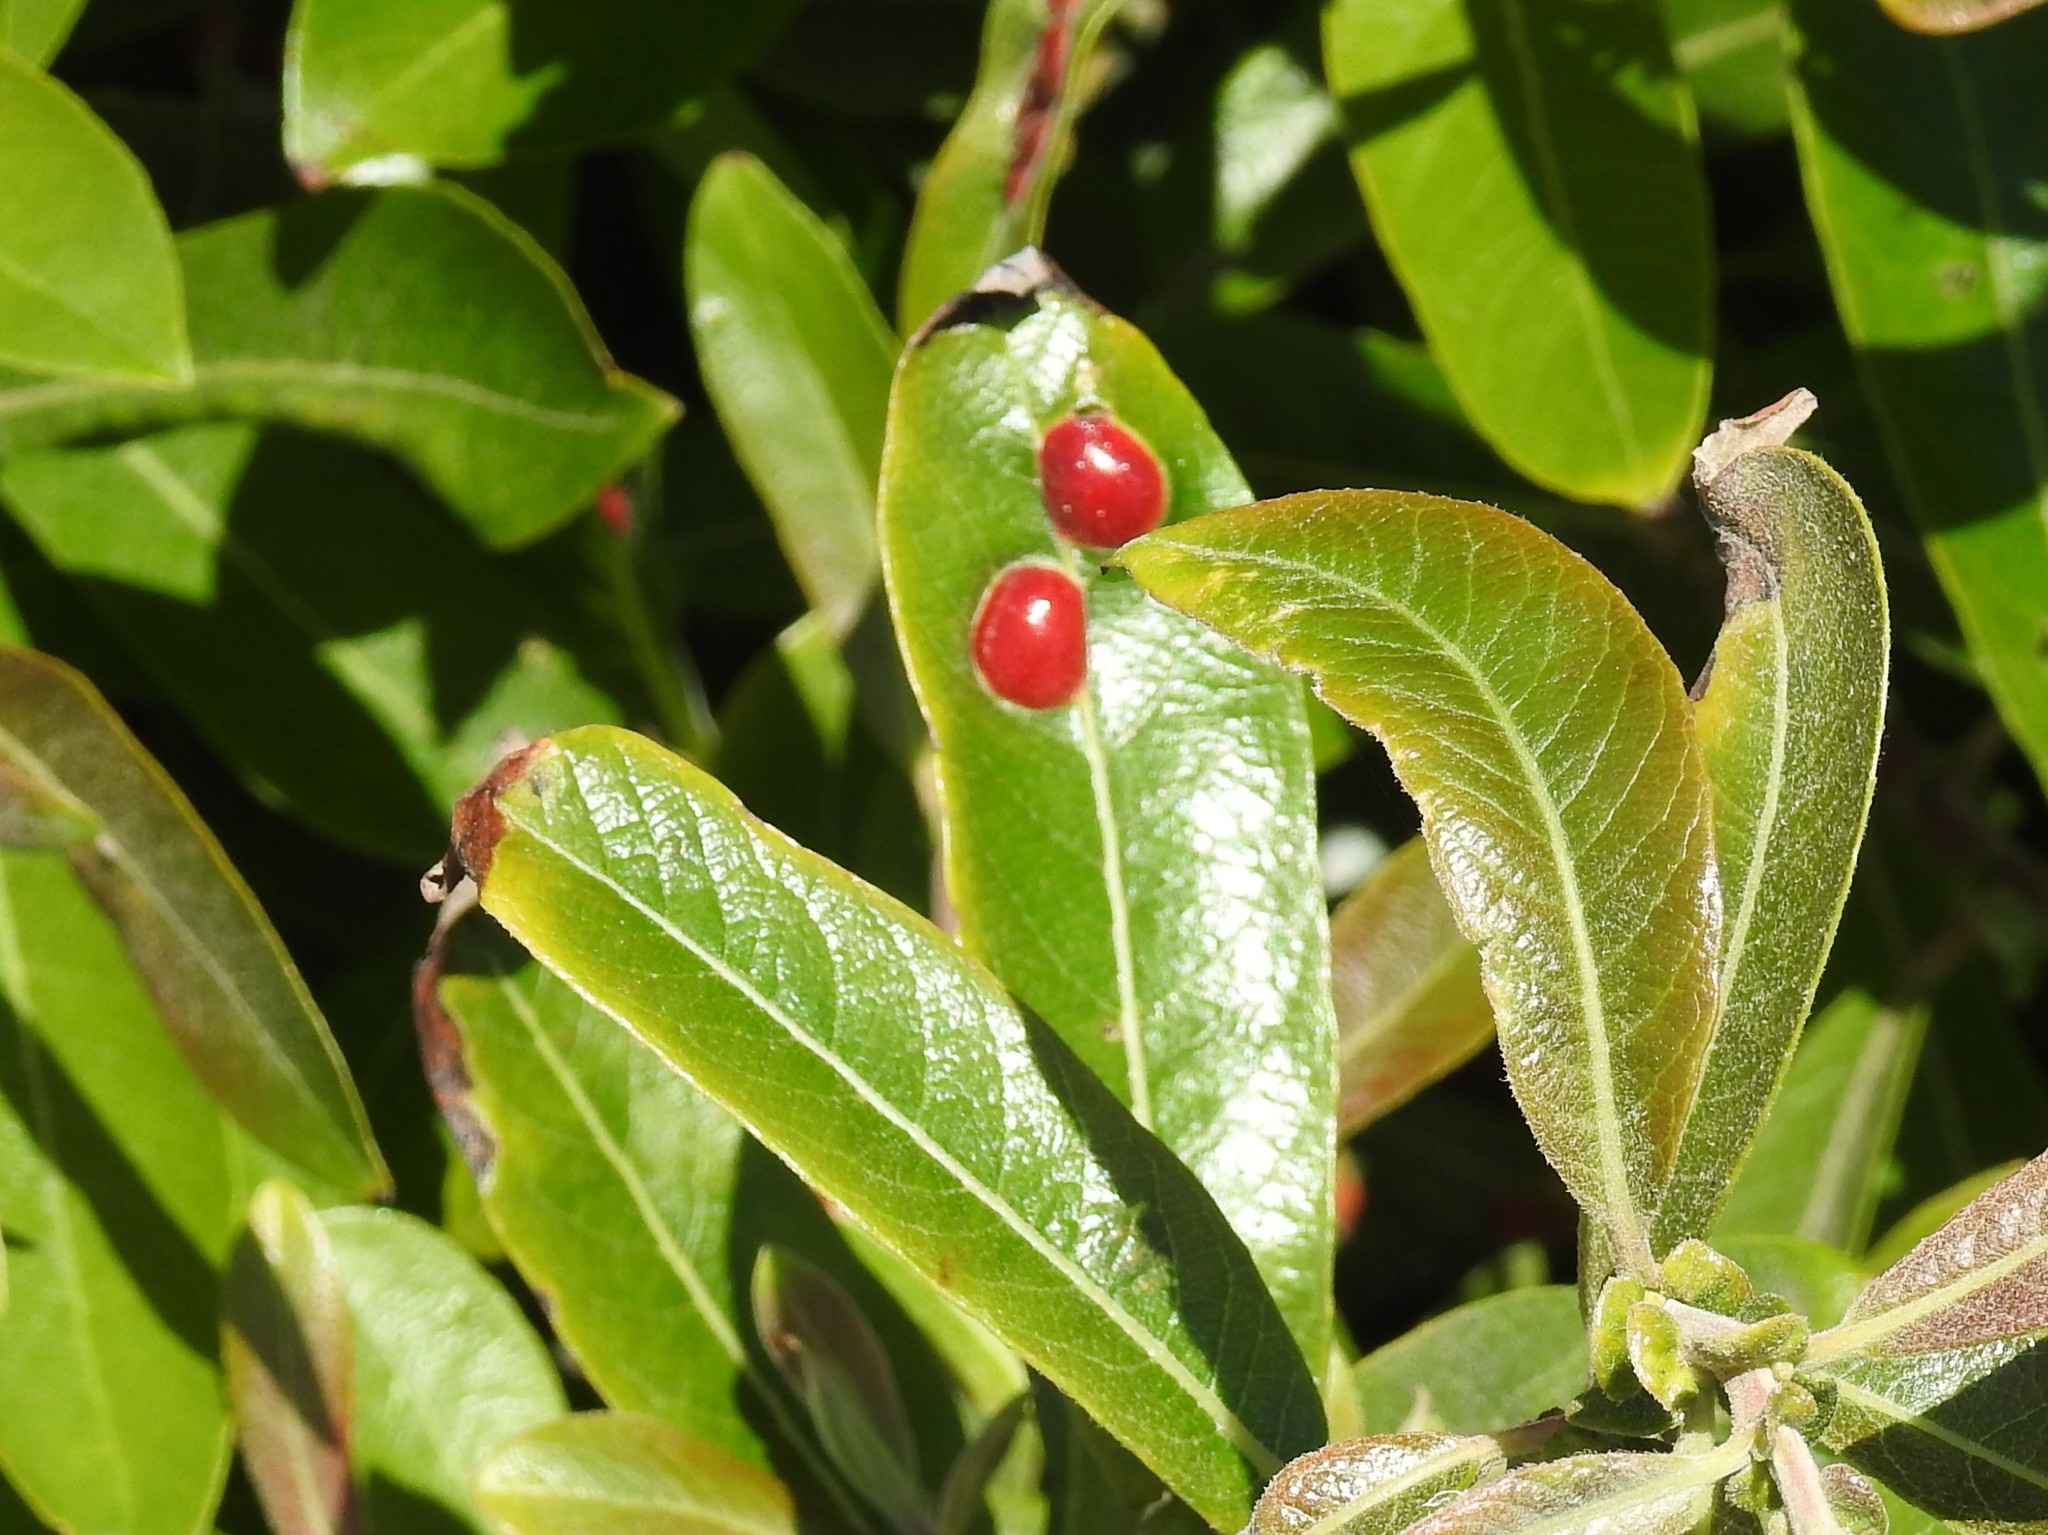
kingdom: Animalia
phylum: Arthropoda
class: Insecta
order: Hymenoptera
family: Tenthredinidae
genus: Euura
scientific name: Euura
